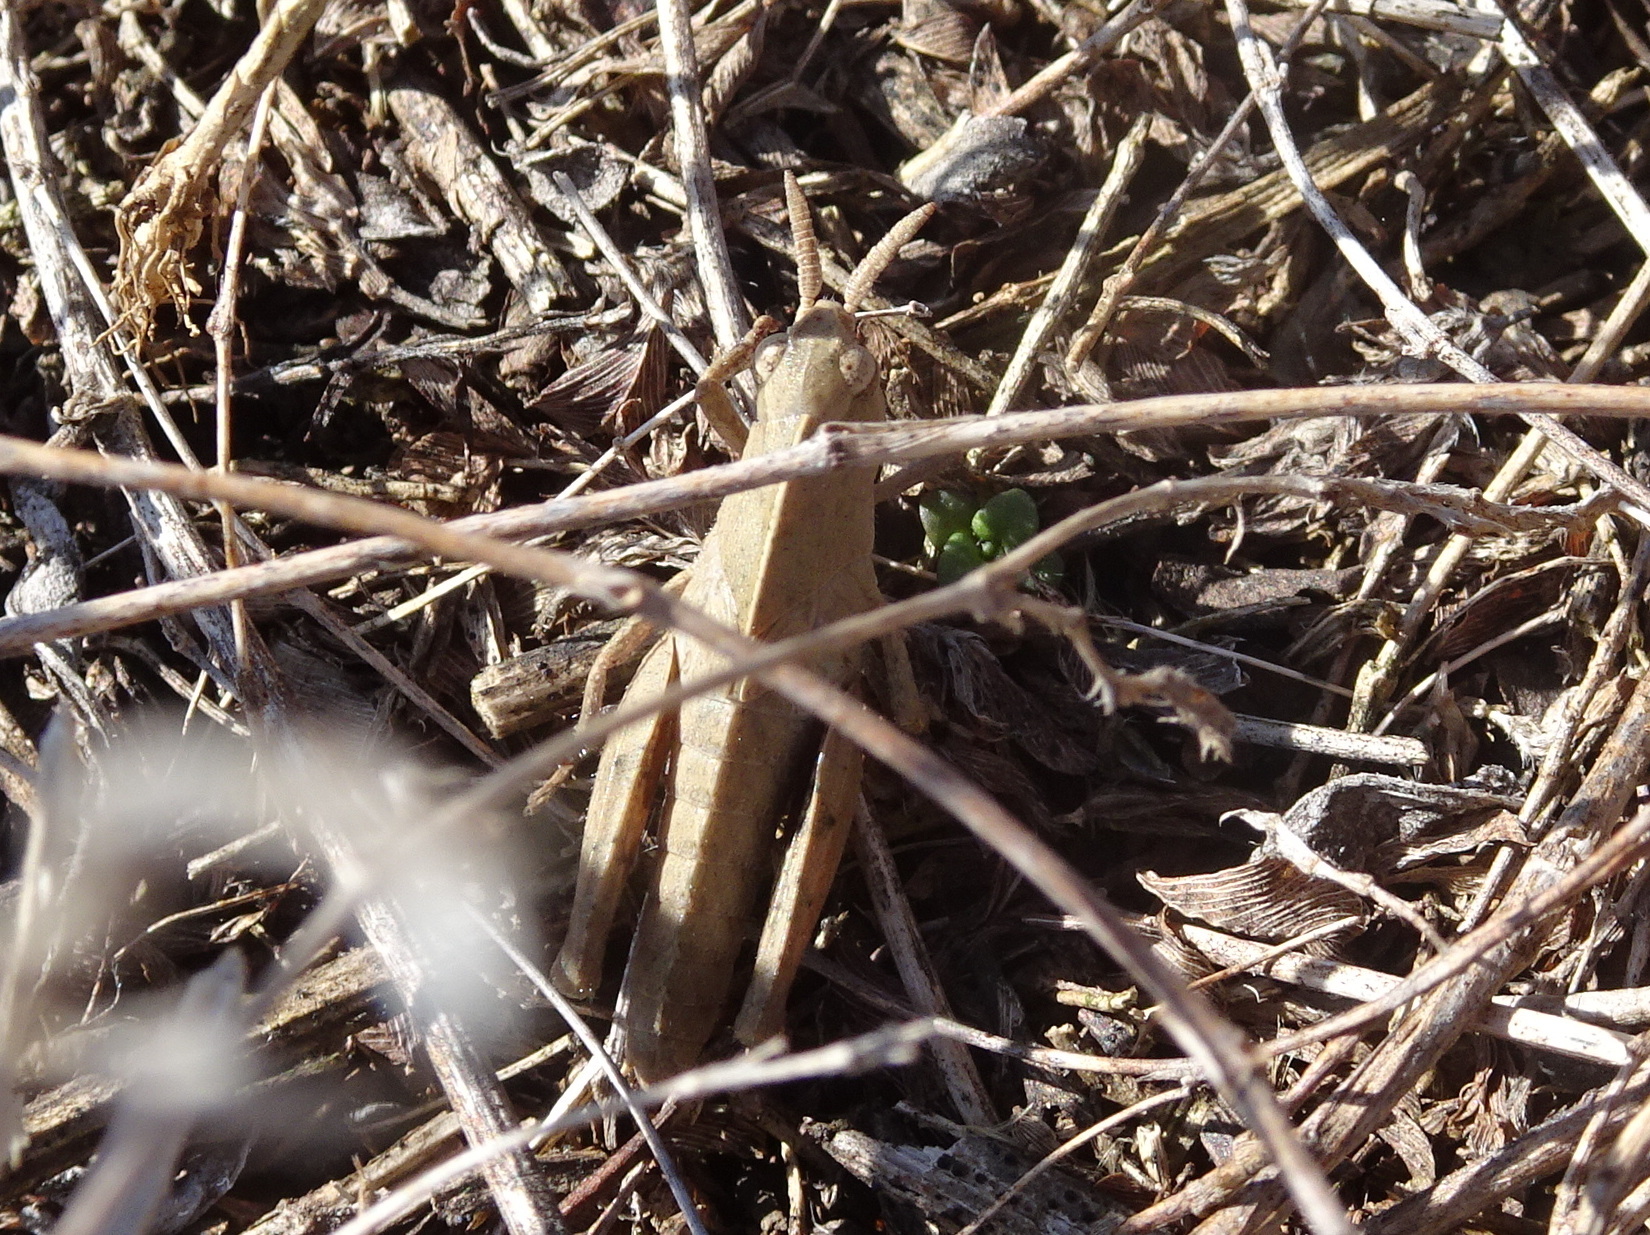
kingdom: Animalia
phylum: Arthropoda
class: Insecta
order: Orthoptera
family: Acrididae
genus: Chortophaga
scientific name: Chortophaga viridifasciata
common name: Green-striped grasshopper
